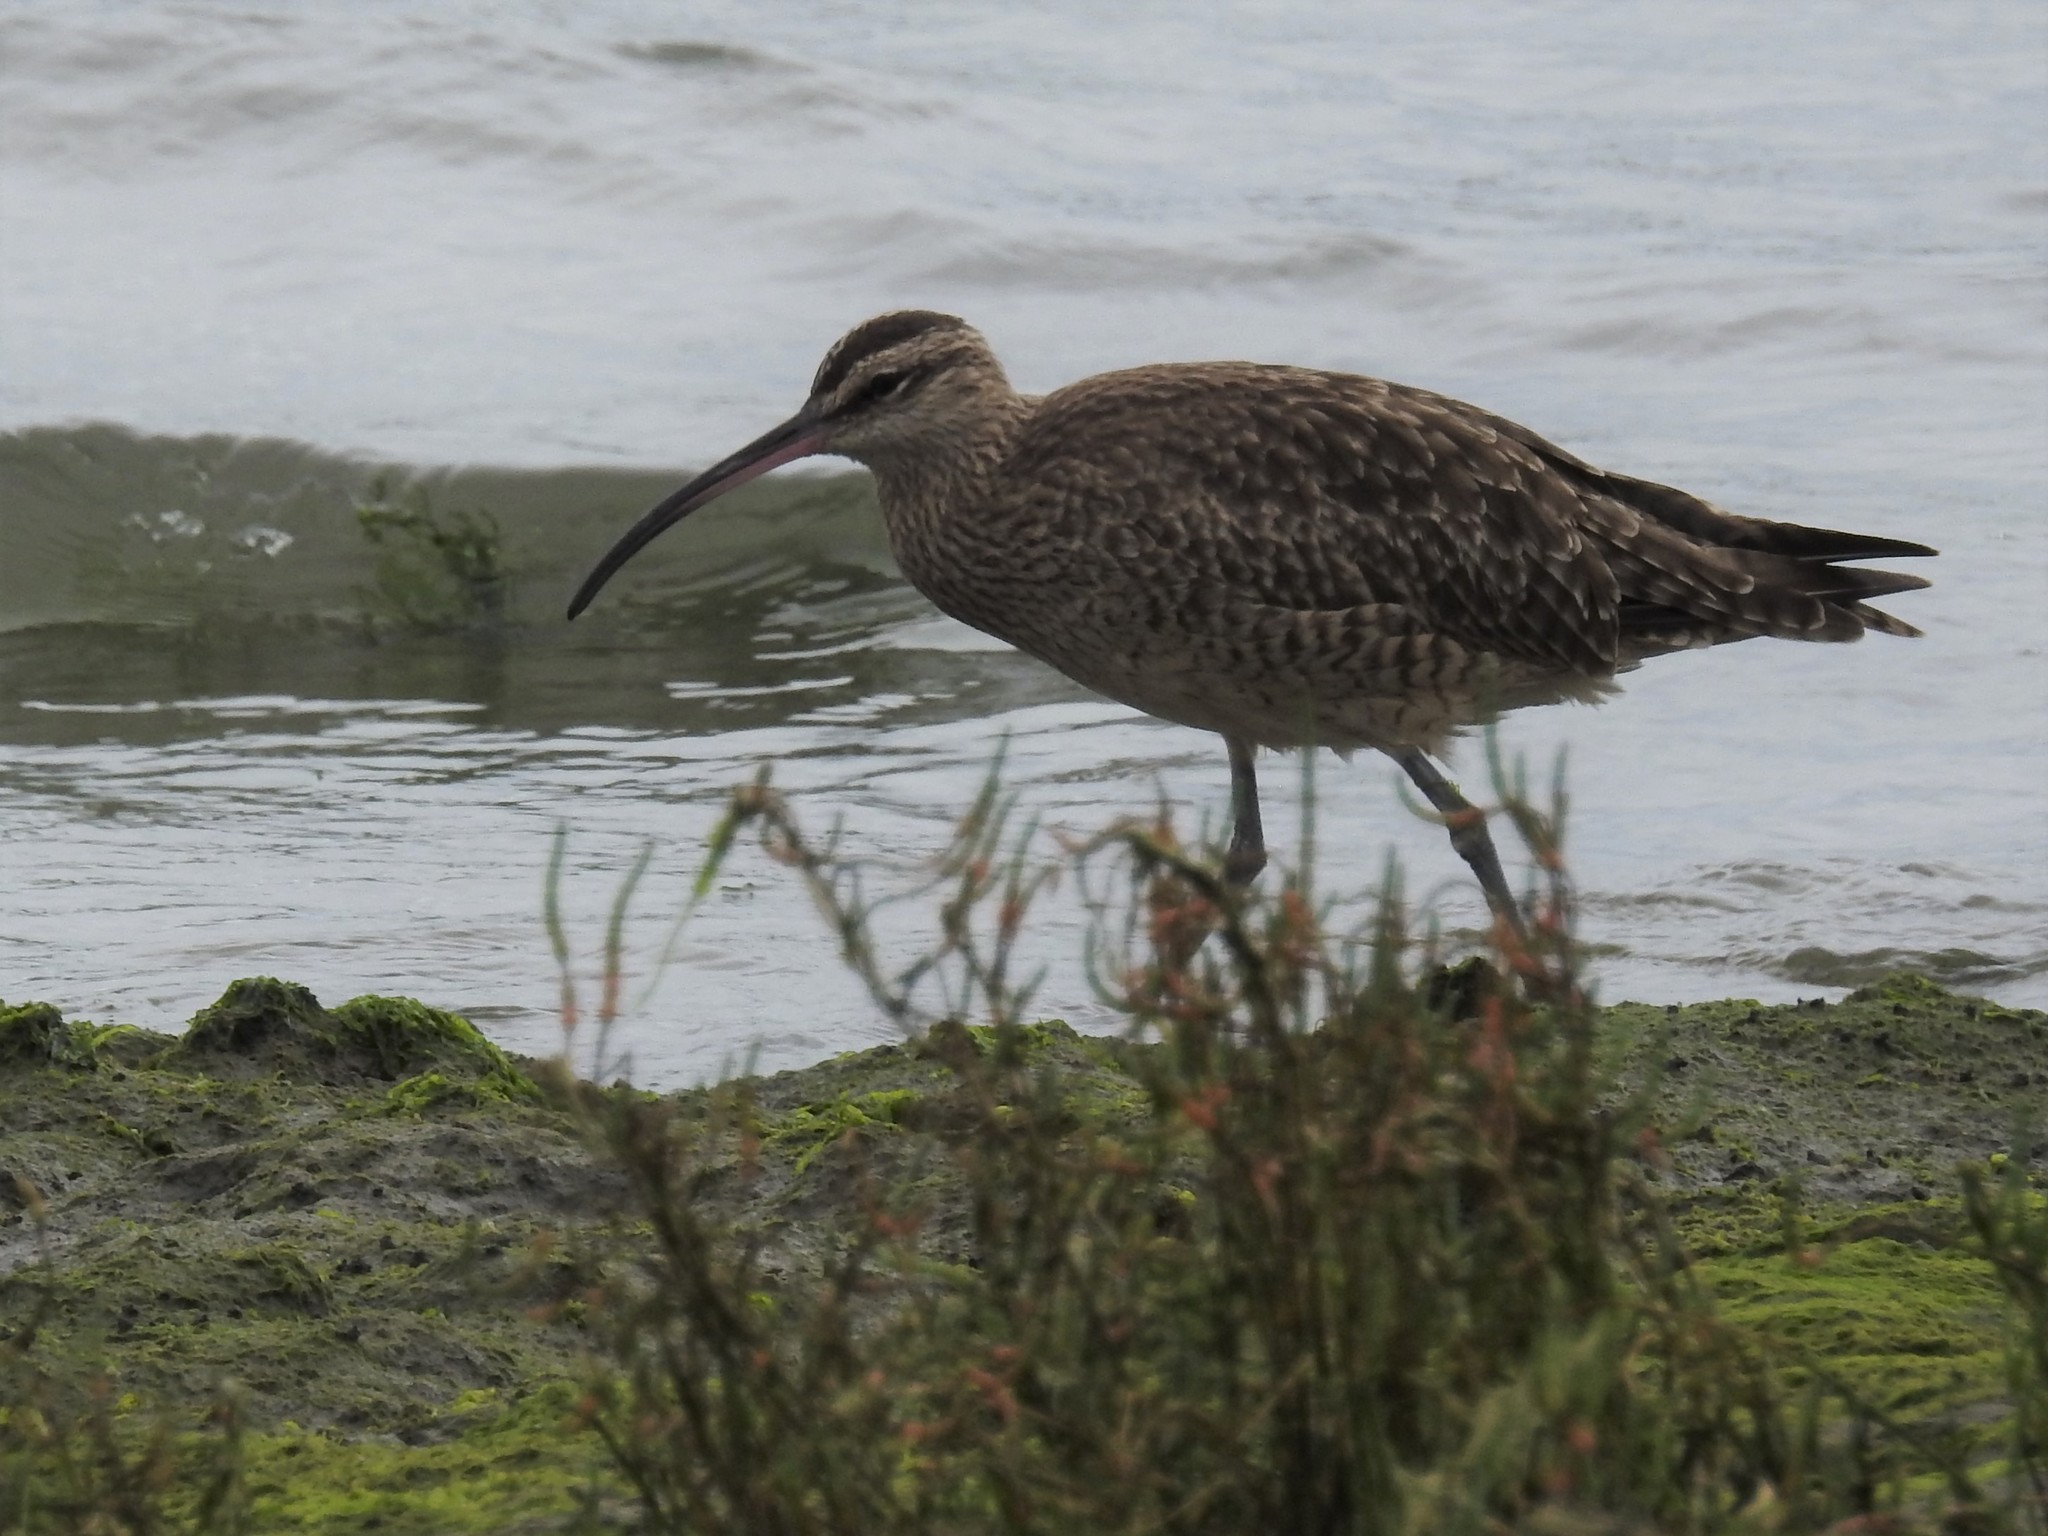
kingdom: Animalia
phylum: Chordata
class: Aves
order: Charadriiformes
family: Scolopacidae
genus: Numenius
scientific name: Numenius phaeopus
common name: Whimbrel
